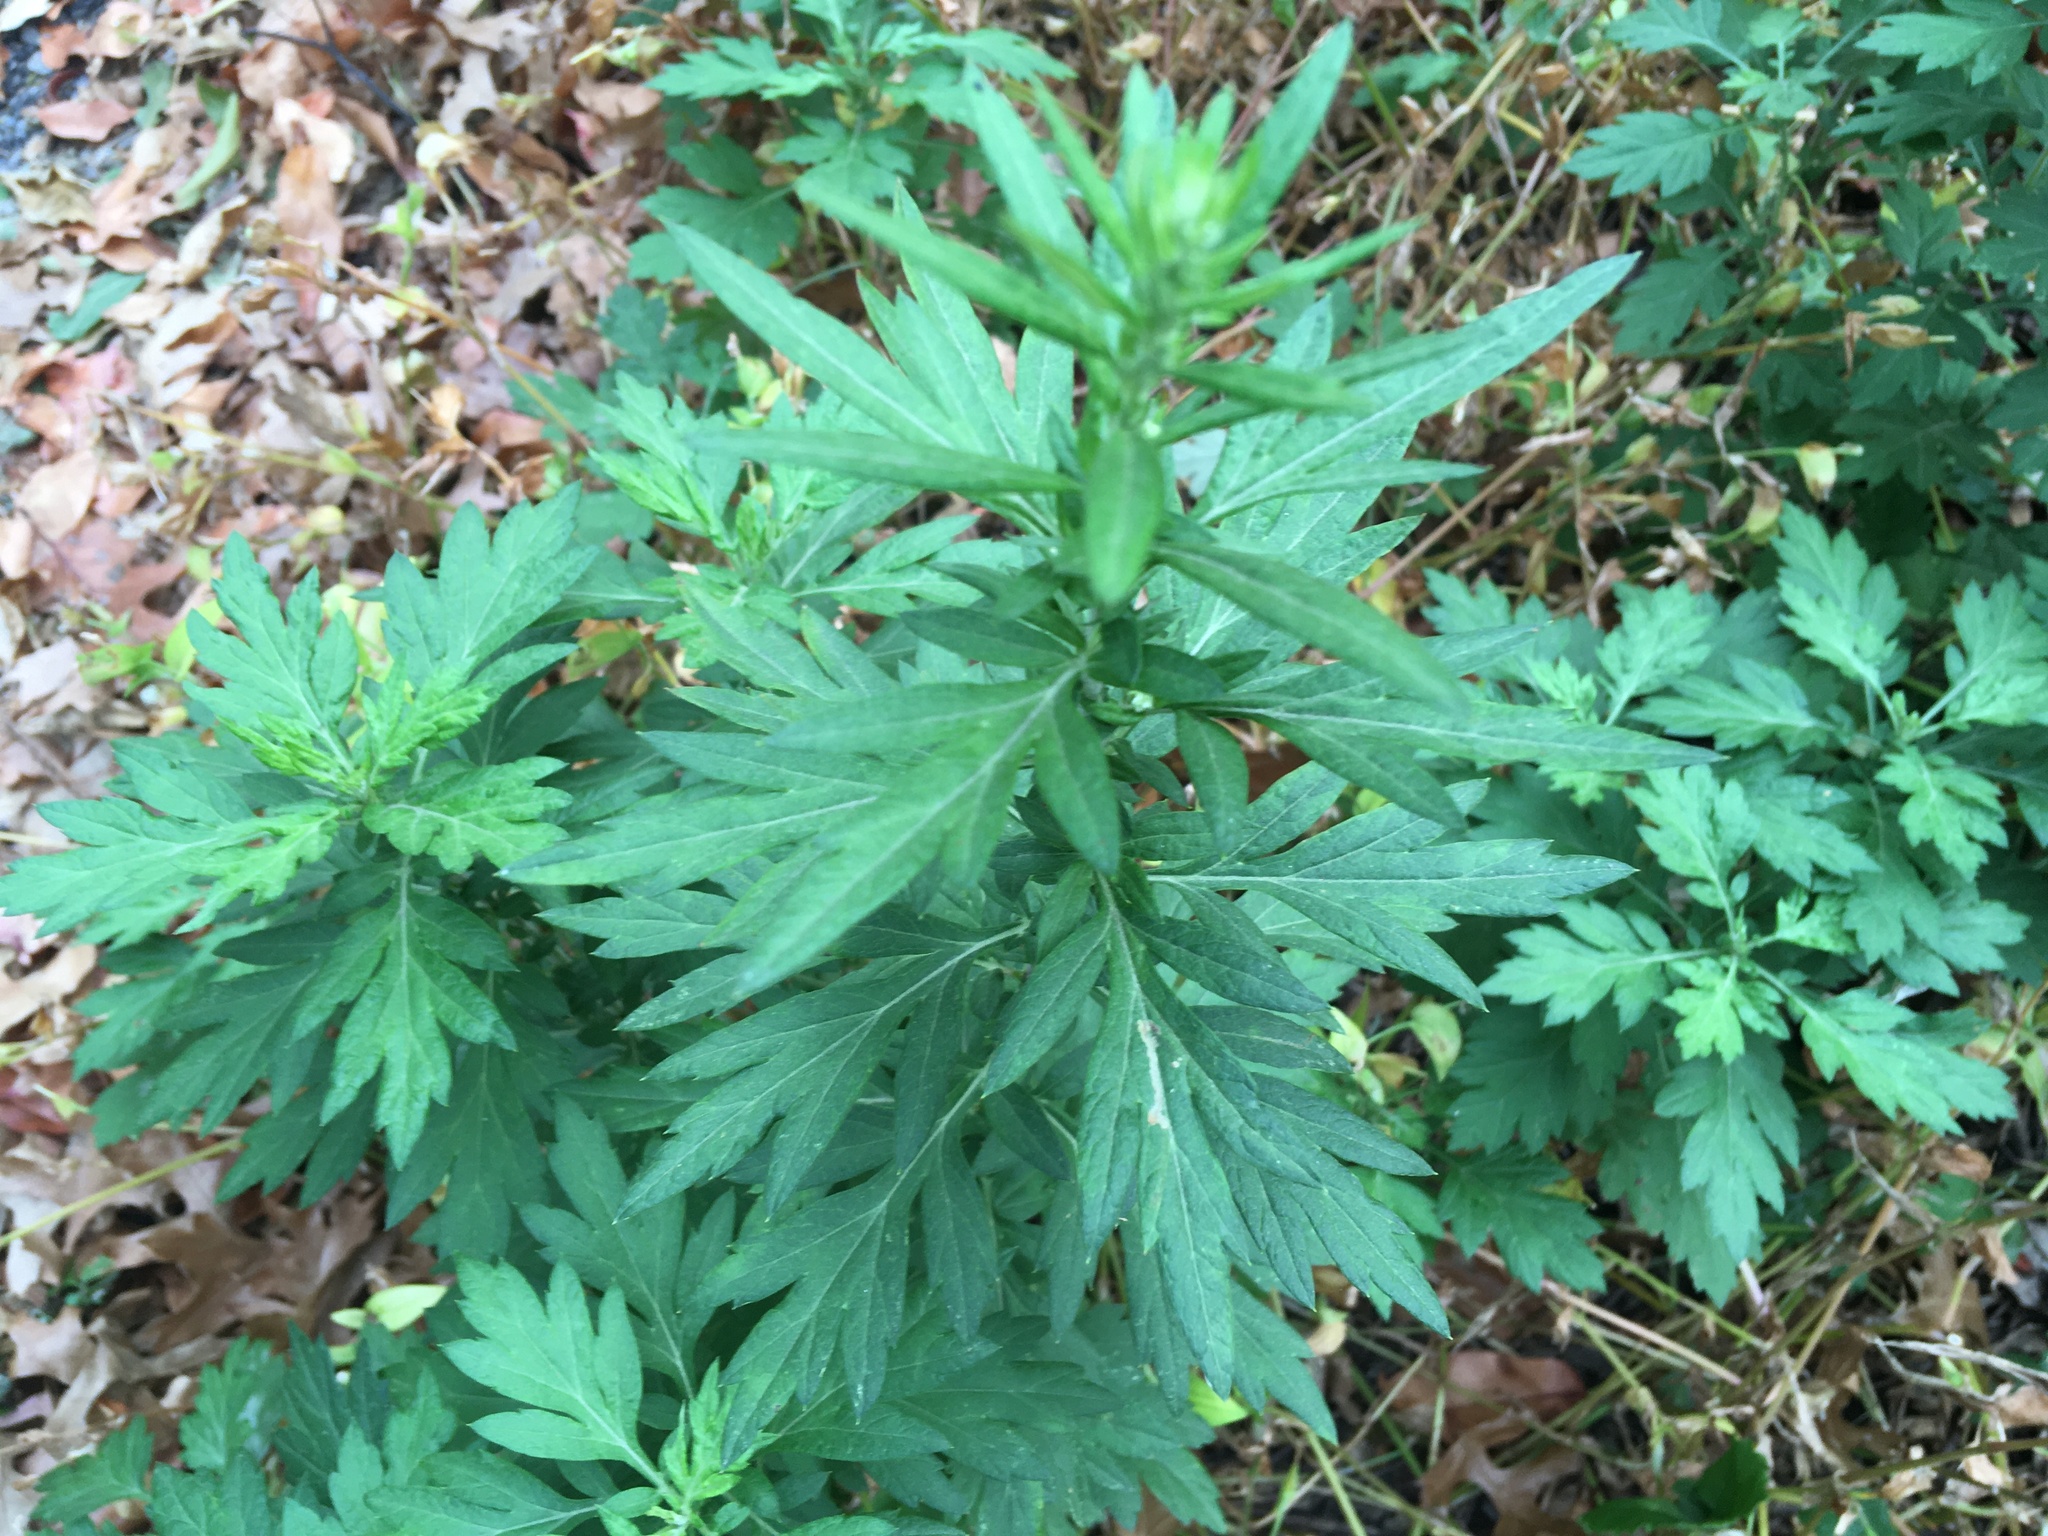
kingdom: Plantae
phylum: Tracheophyta
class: Magnoliopsida
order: Asterales
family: Asteraceae
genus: Artemisia
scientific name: Artemisia vulgaris
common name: Mugwort
